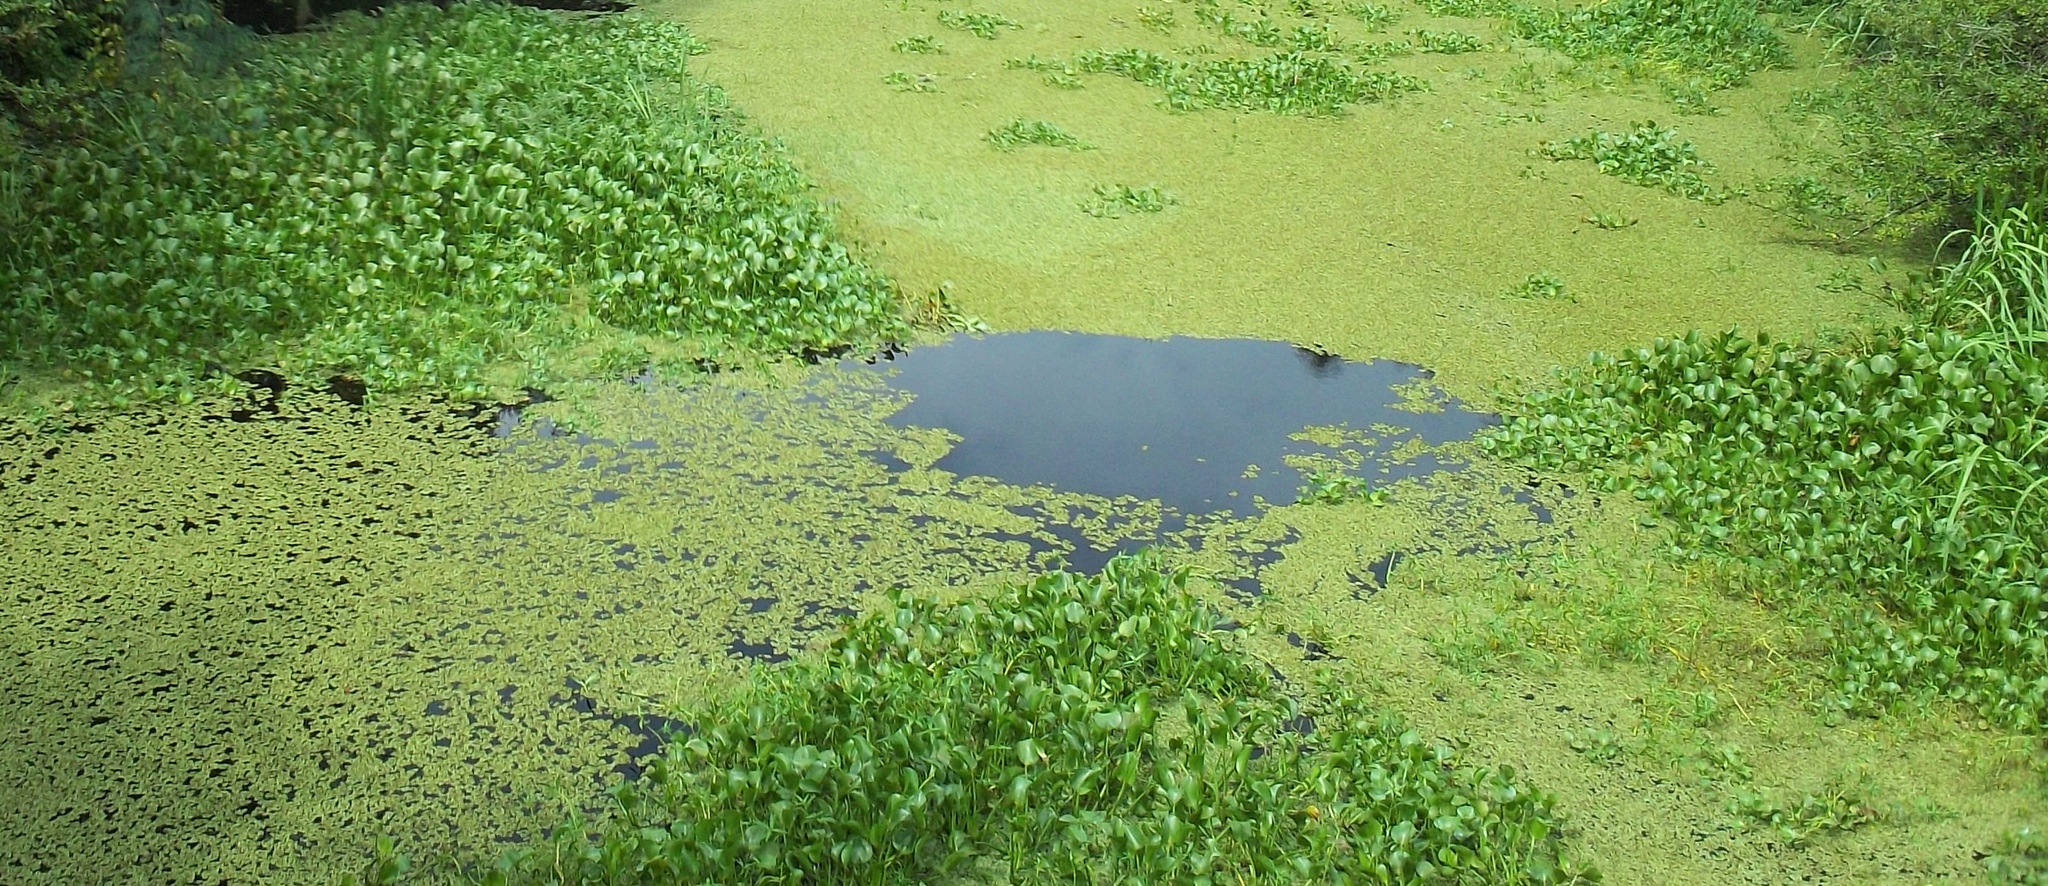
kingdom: Plantae
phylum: Tracheophyta
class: Liliopsida
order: Commelinales
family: Pontederiaceae
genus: Pontederia
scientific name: Pontederia crassipes
